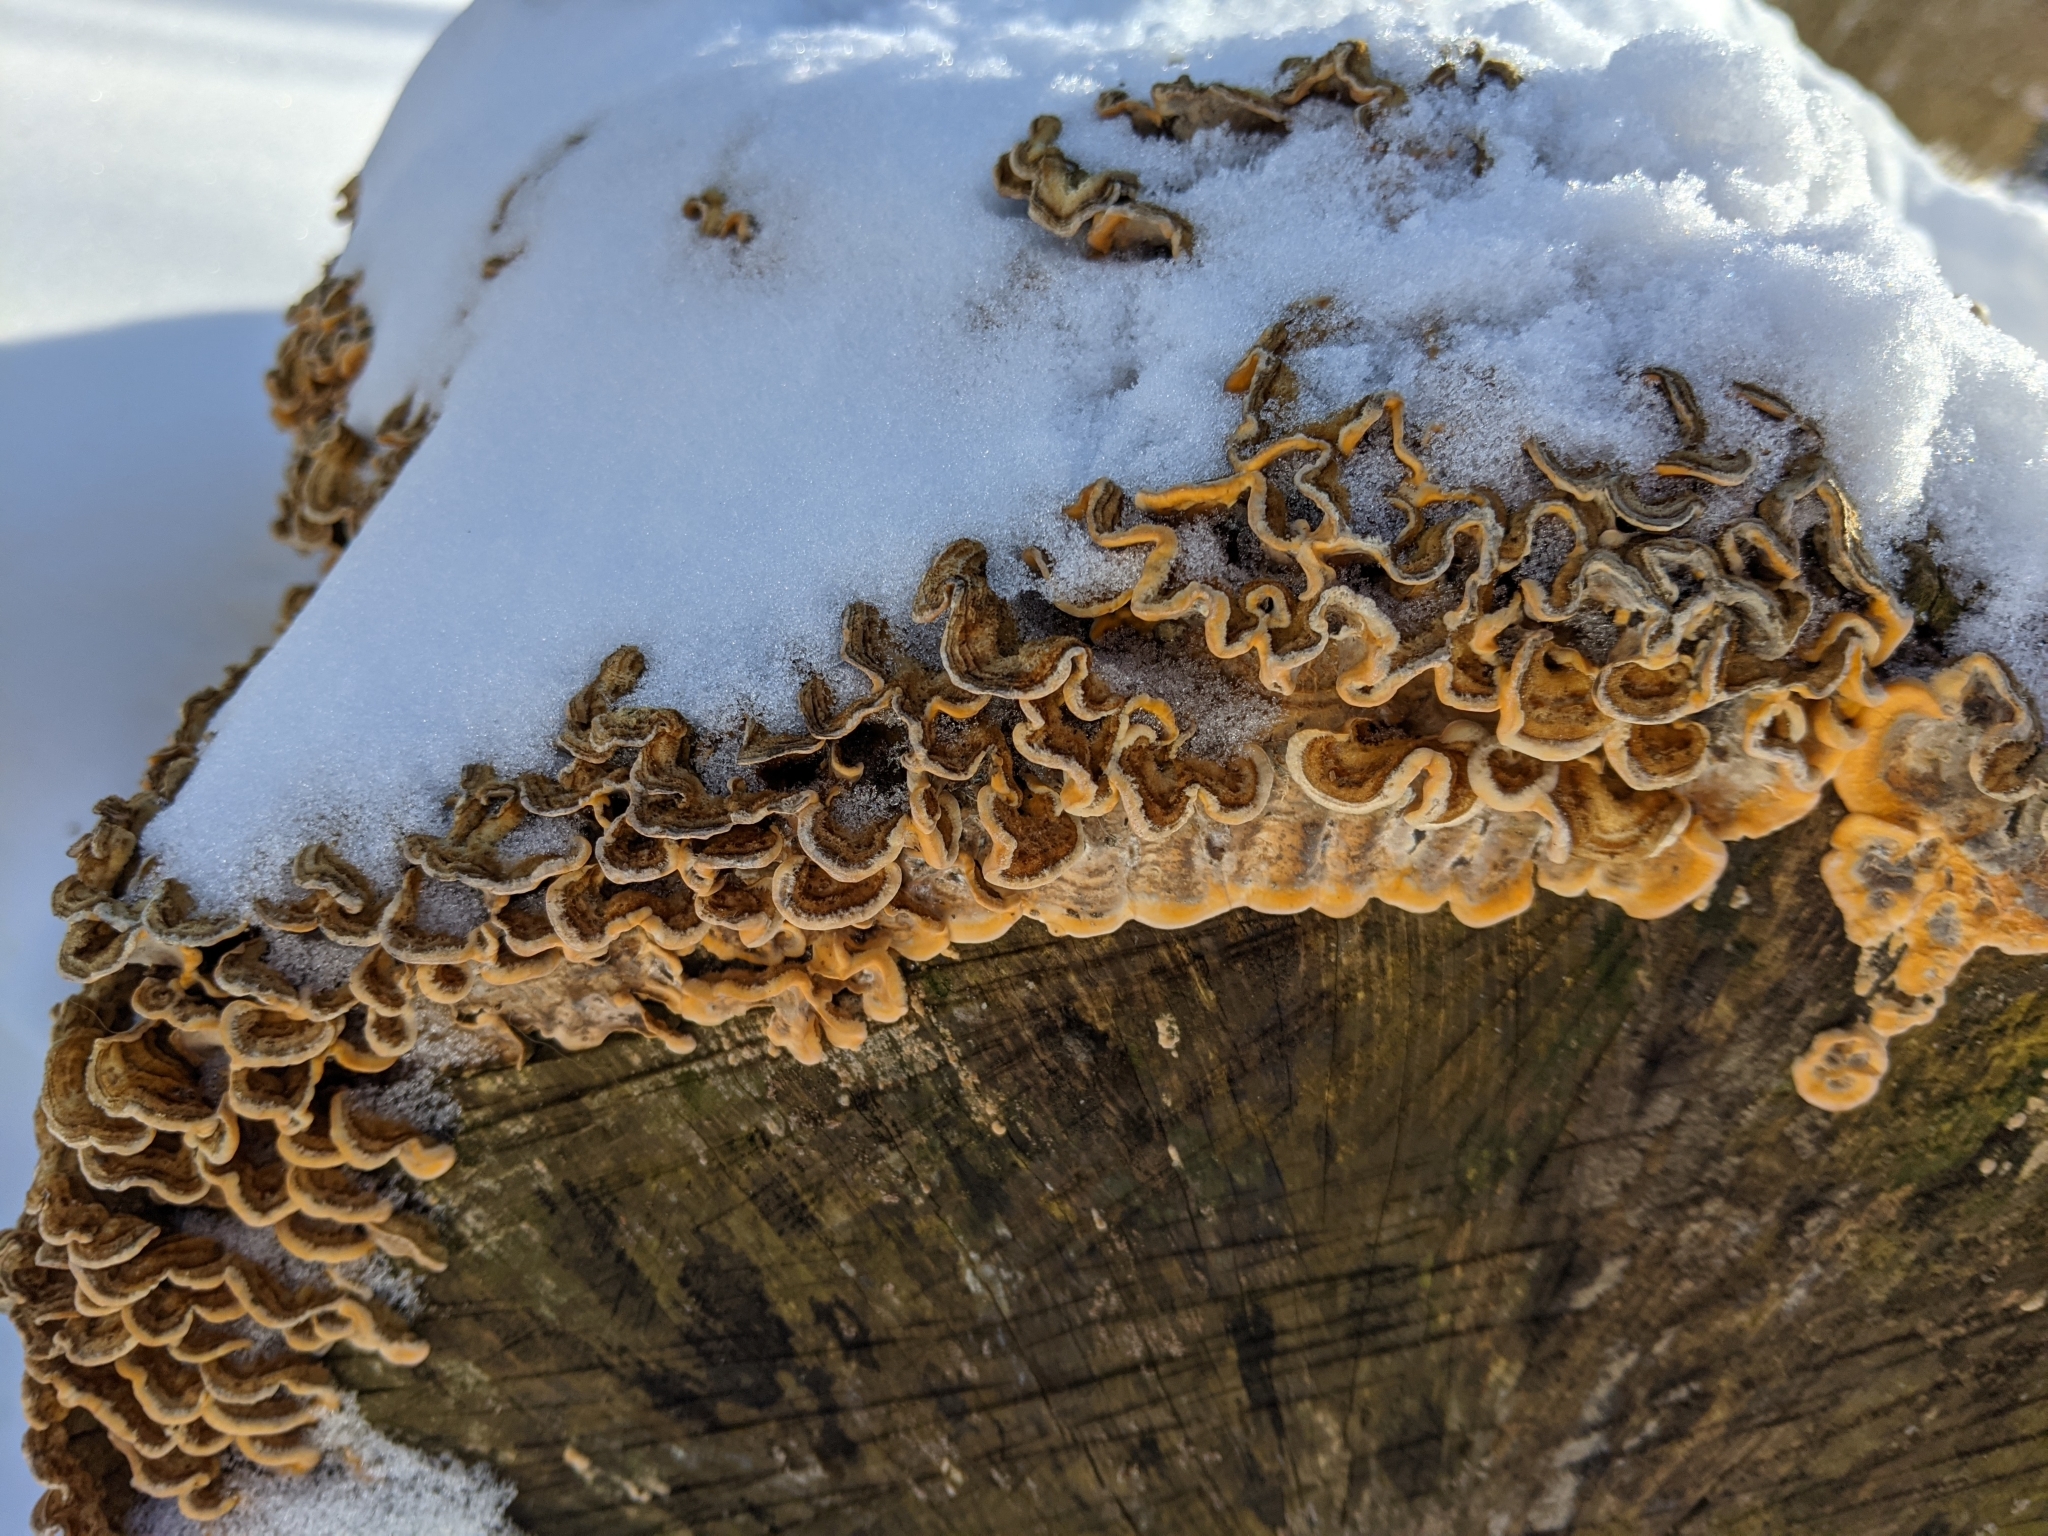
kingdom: Fungi
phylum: Basidiomycota
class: Agaricomycetes
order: Russulales
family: Stereaceae
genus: Stereum
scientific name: Stereum hirsutum
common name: Hairy curtain crust
